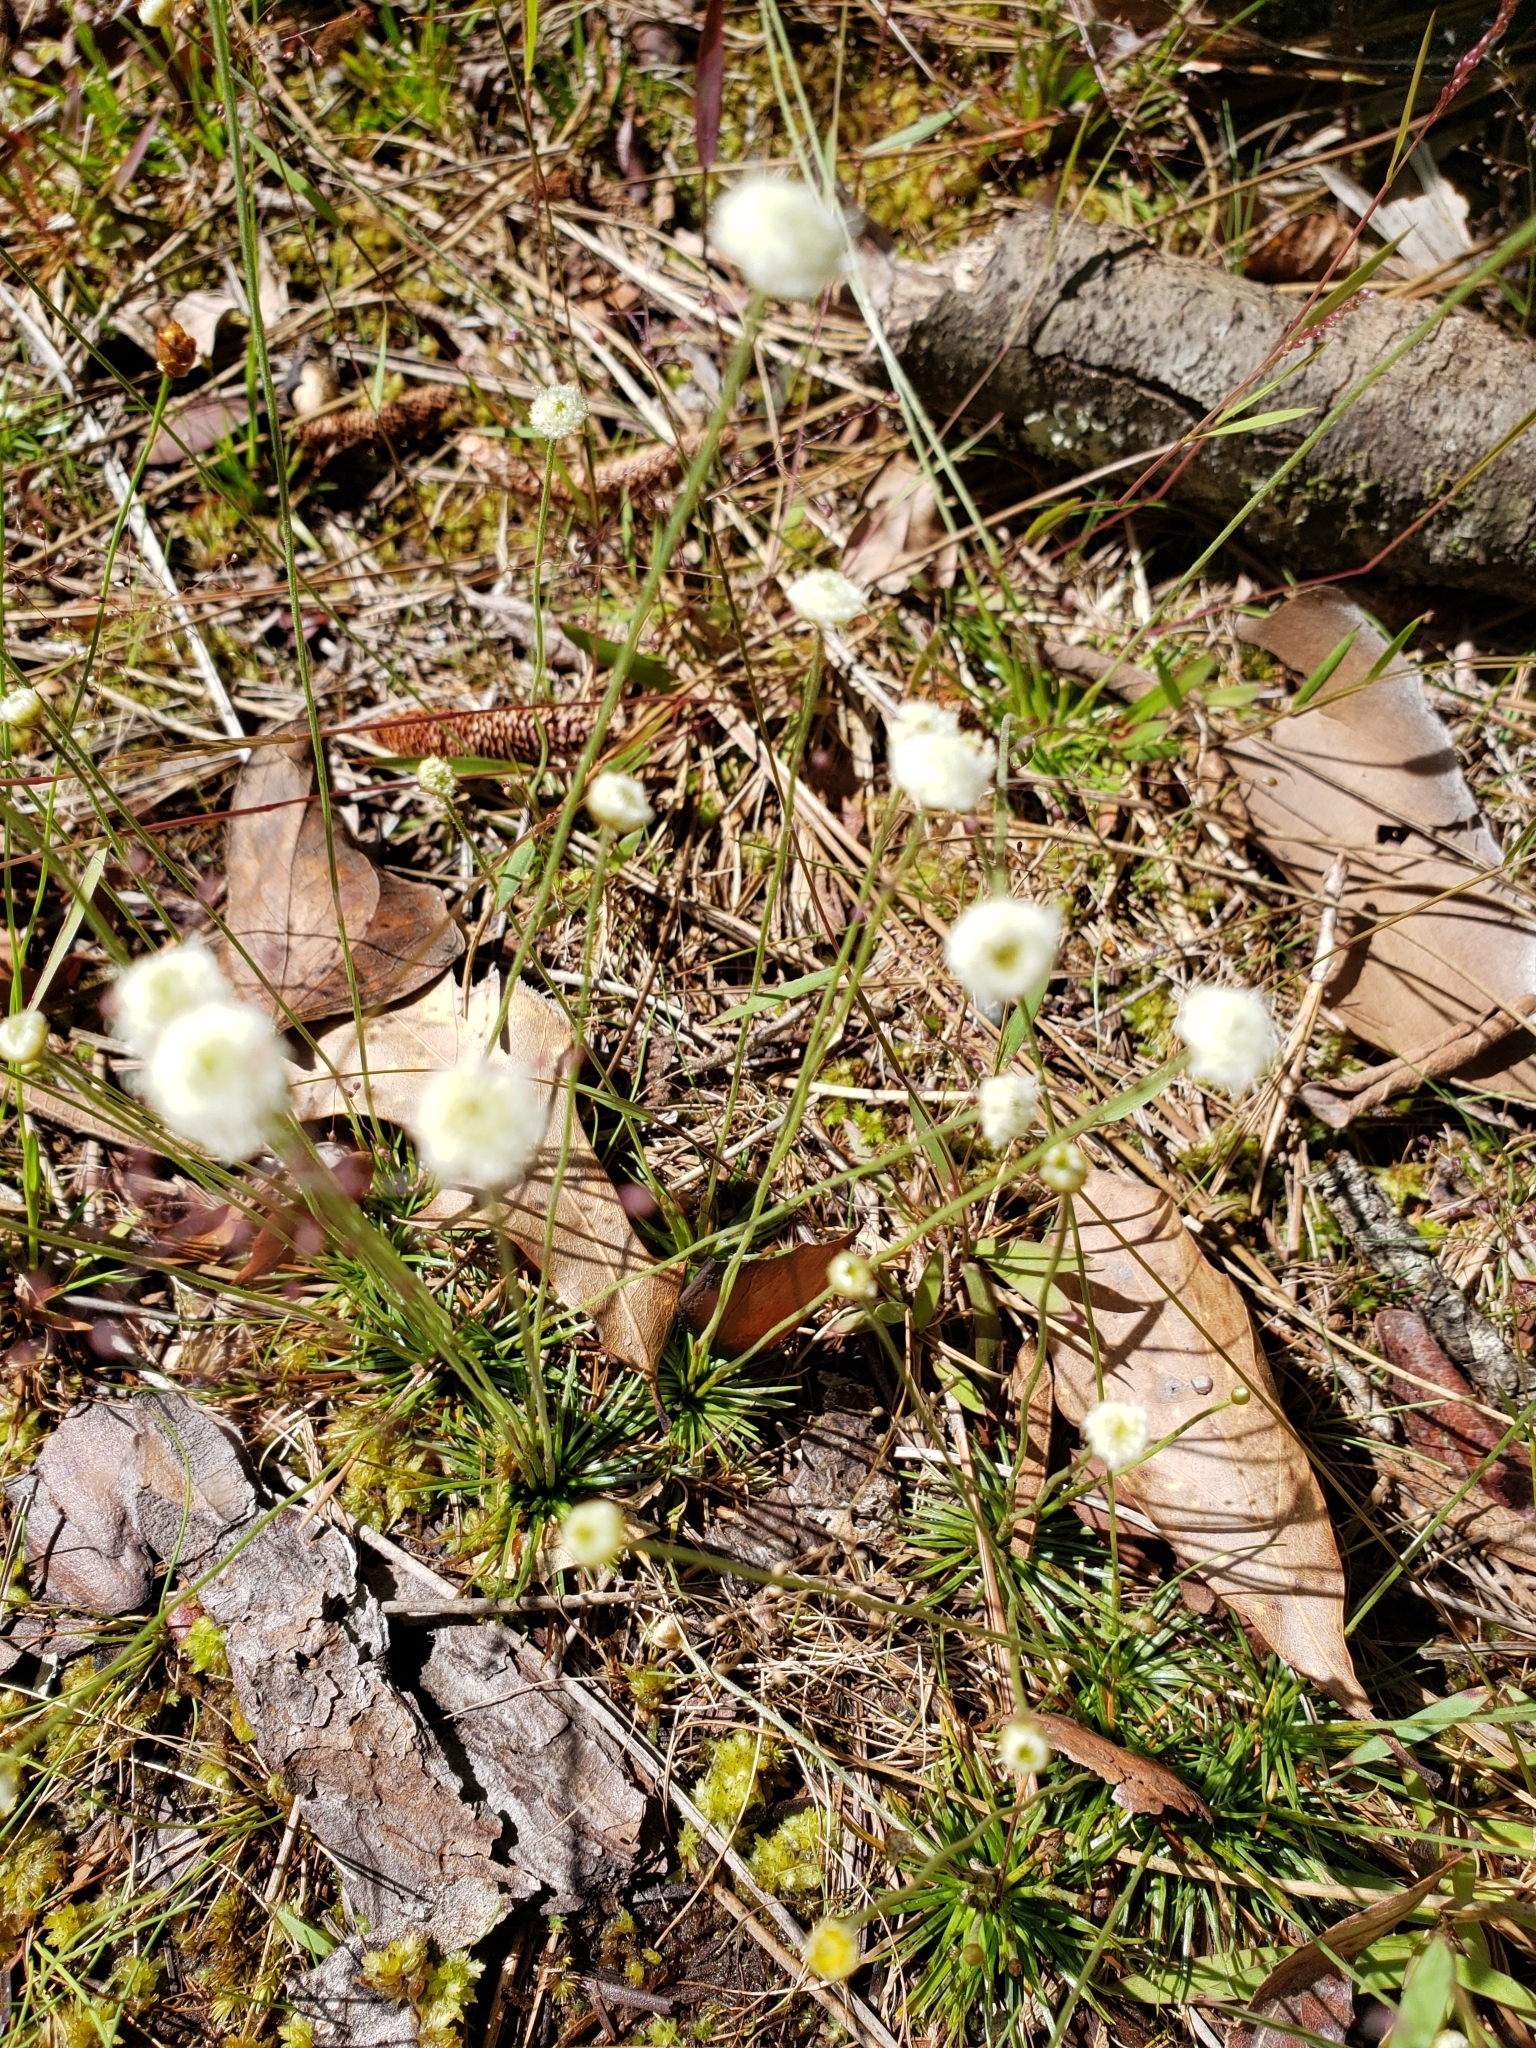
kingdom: Plantae
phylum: Tracheophyta
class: Liliopsida
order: Poales
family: Eriocaulaceae
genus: Syngonanthus
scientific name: Syngonanthus flavidulus
